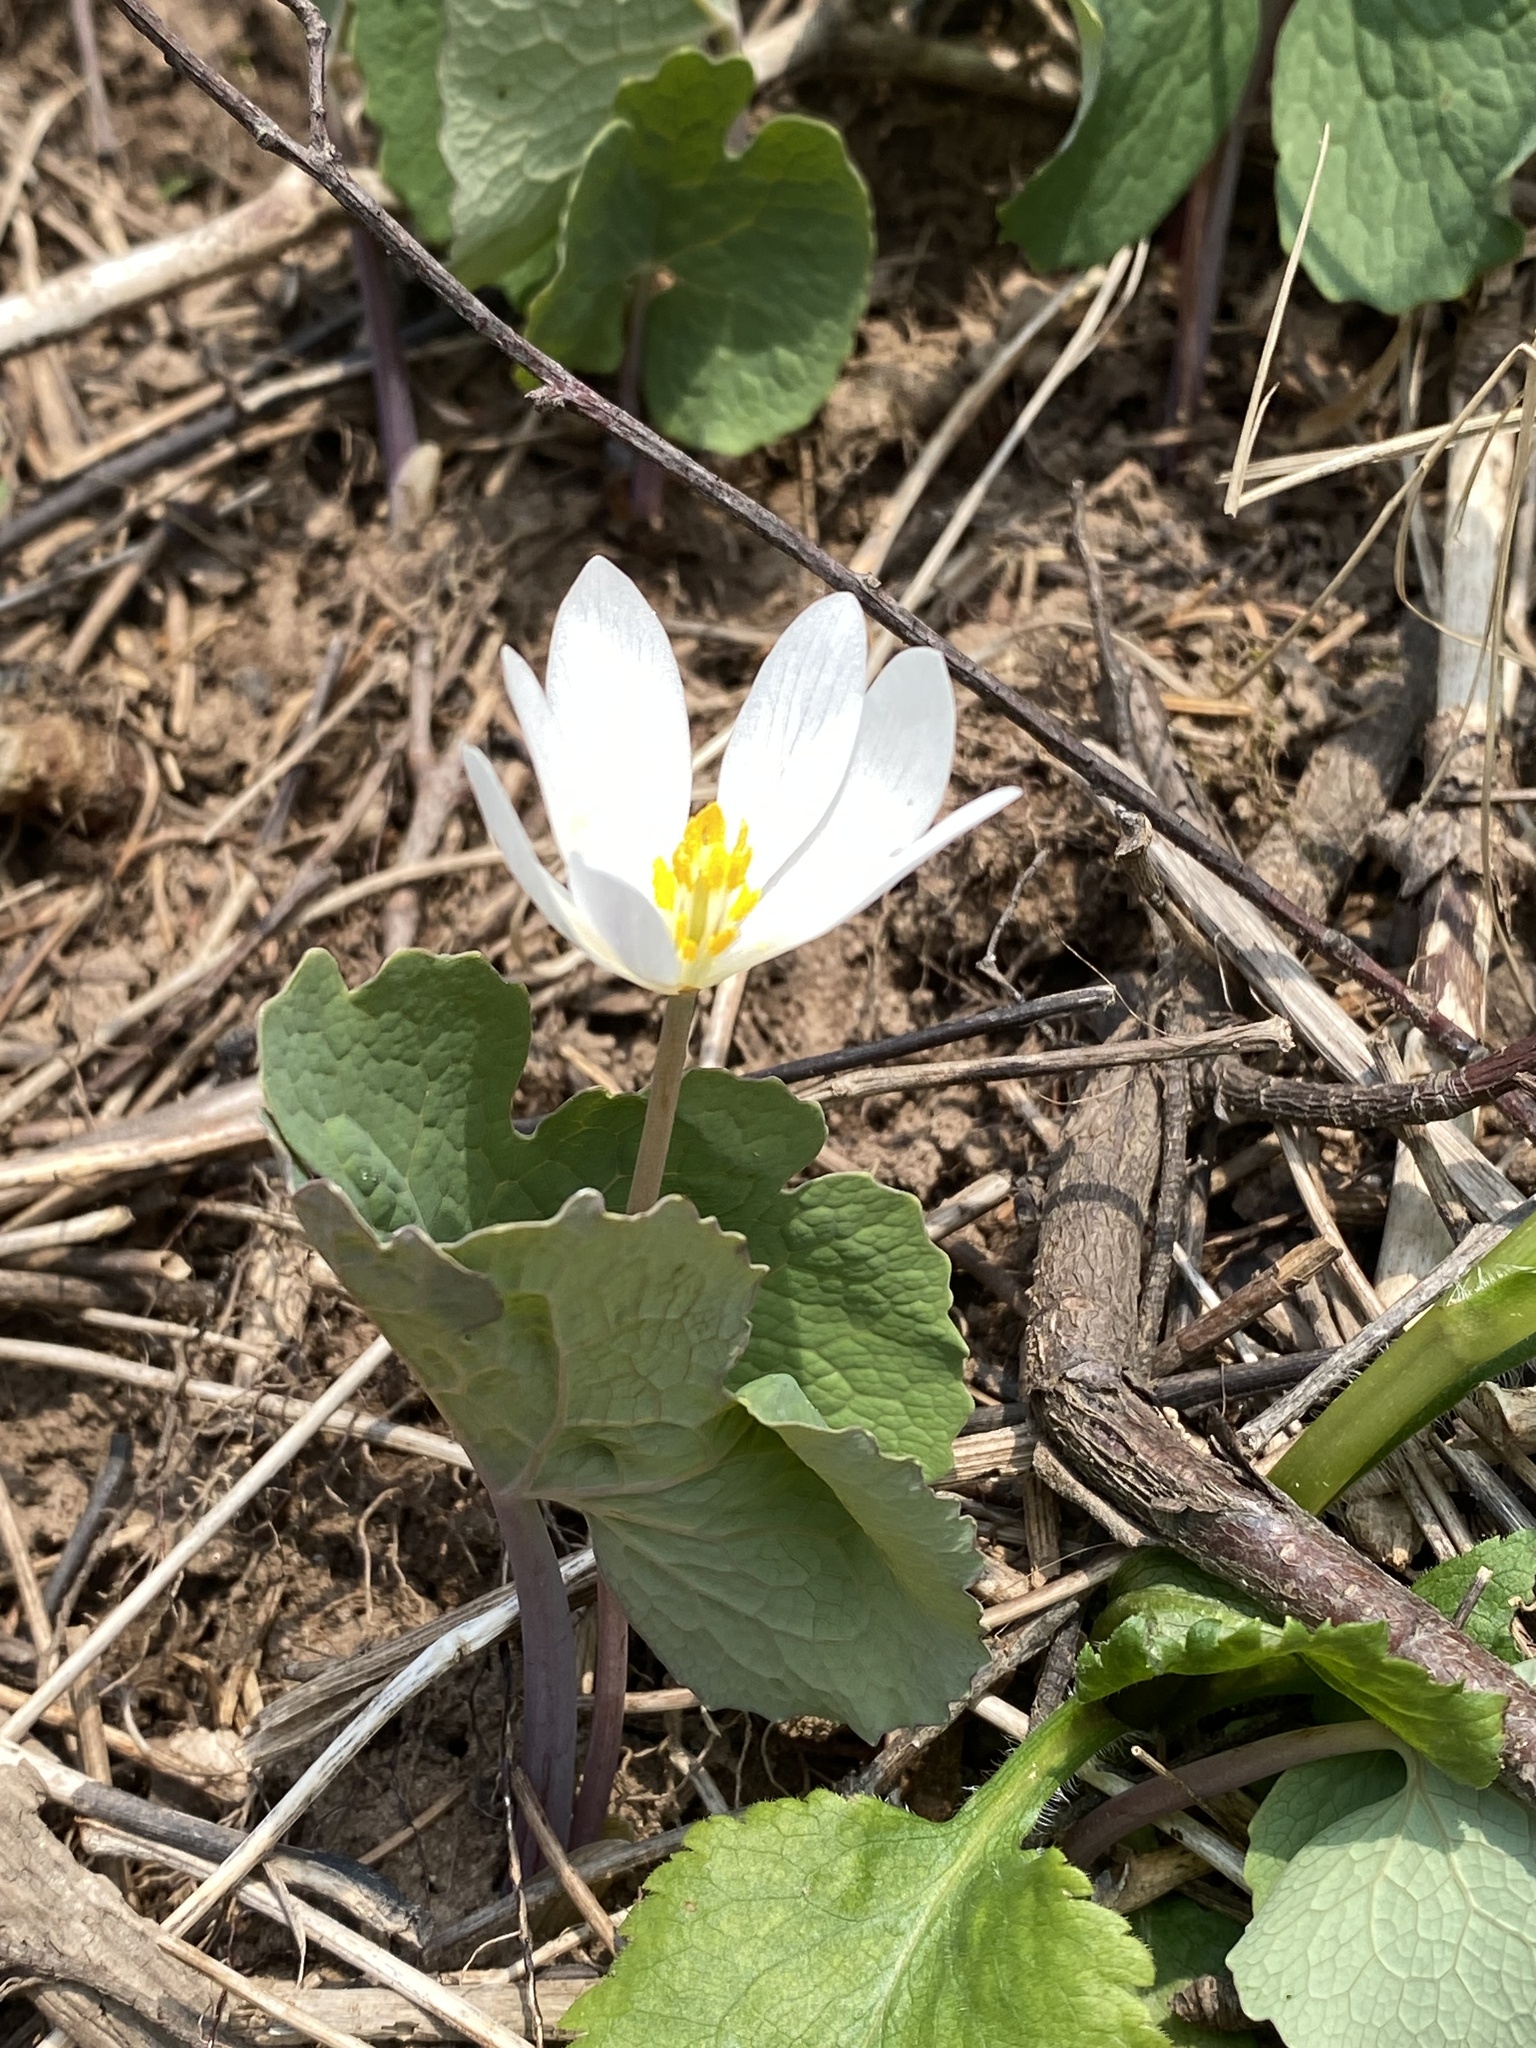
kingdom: Plantae
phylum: Tracheophyta
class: Magnoliopsida
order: Ranunculales
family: Papaveraceae
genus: Sanguinaria
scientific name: Sanguinaria canadensis
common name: Bloodroot
